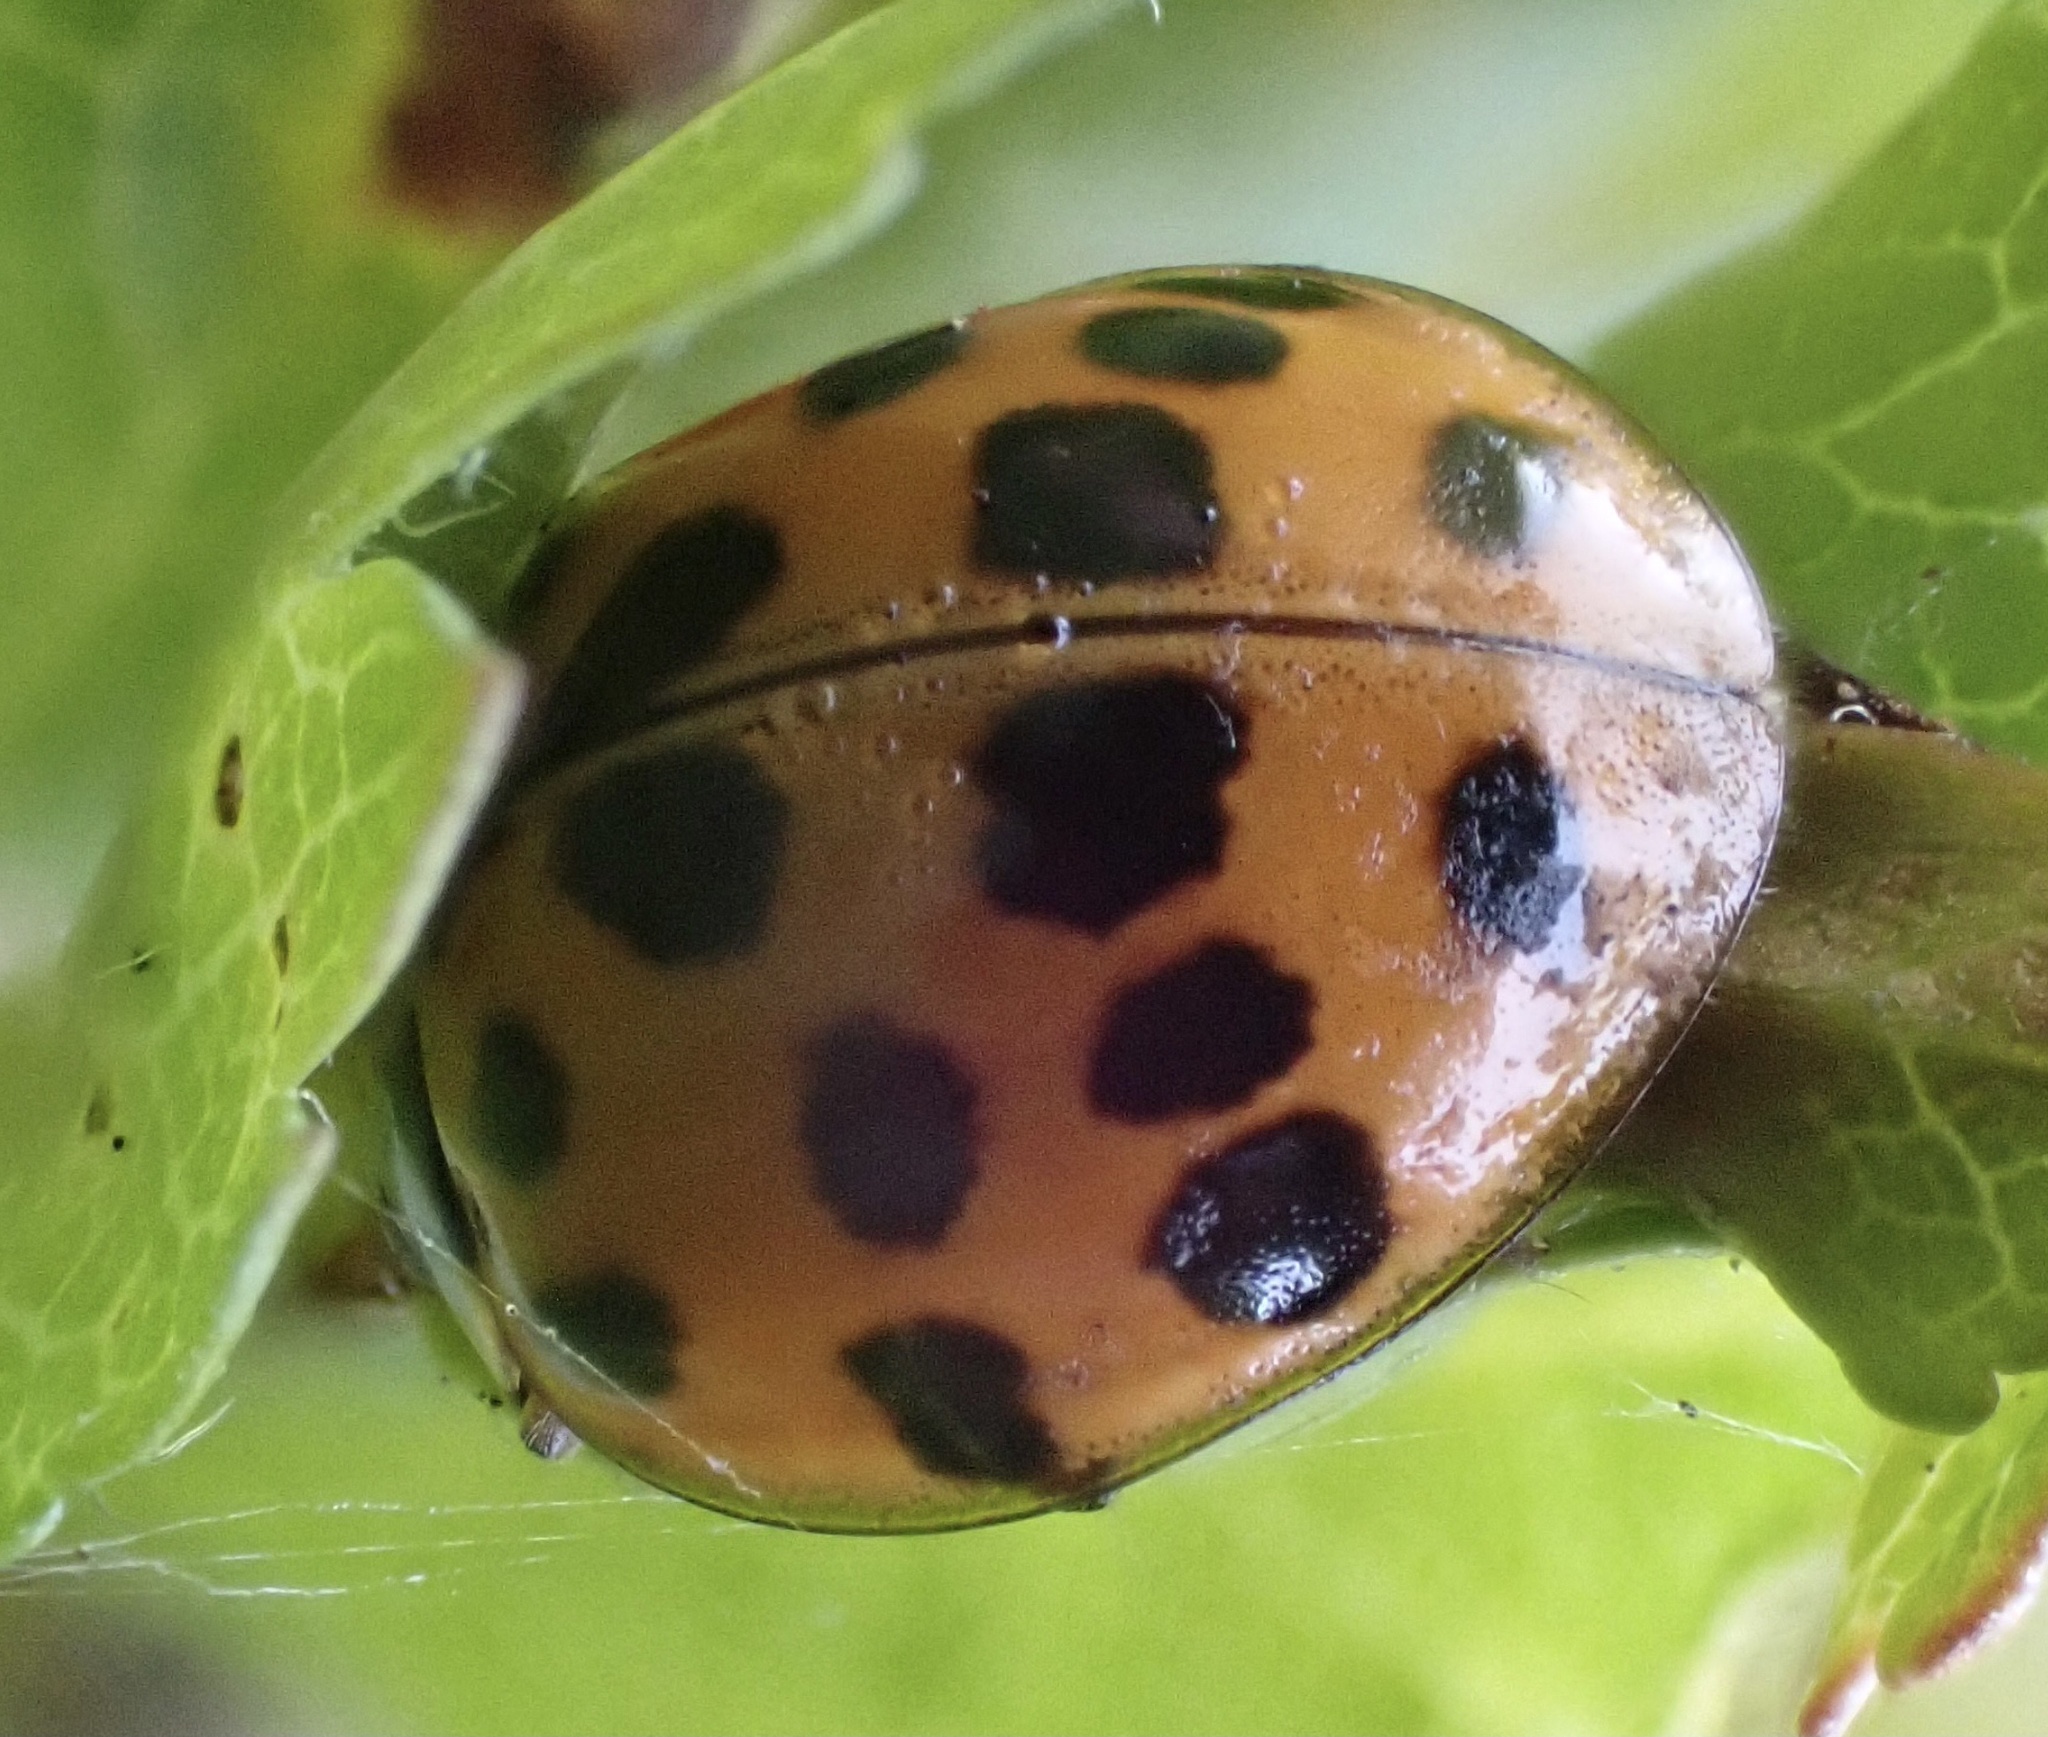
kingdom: Animalia
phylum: Arthropoda
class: Insecta
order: Coleoptera
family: Coccinellidae
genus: Harmonia
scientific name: Harmonia axyridis
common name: Harlequin ladybird
